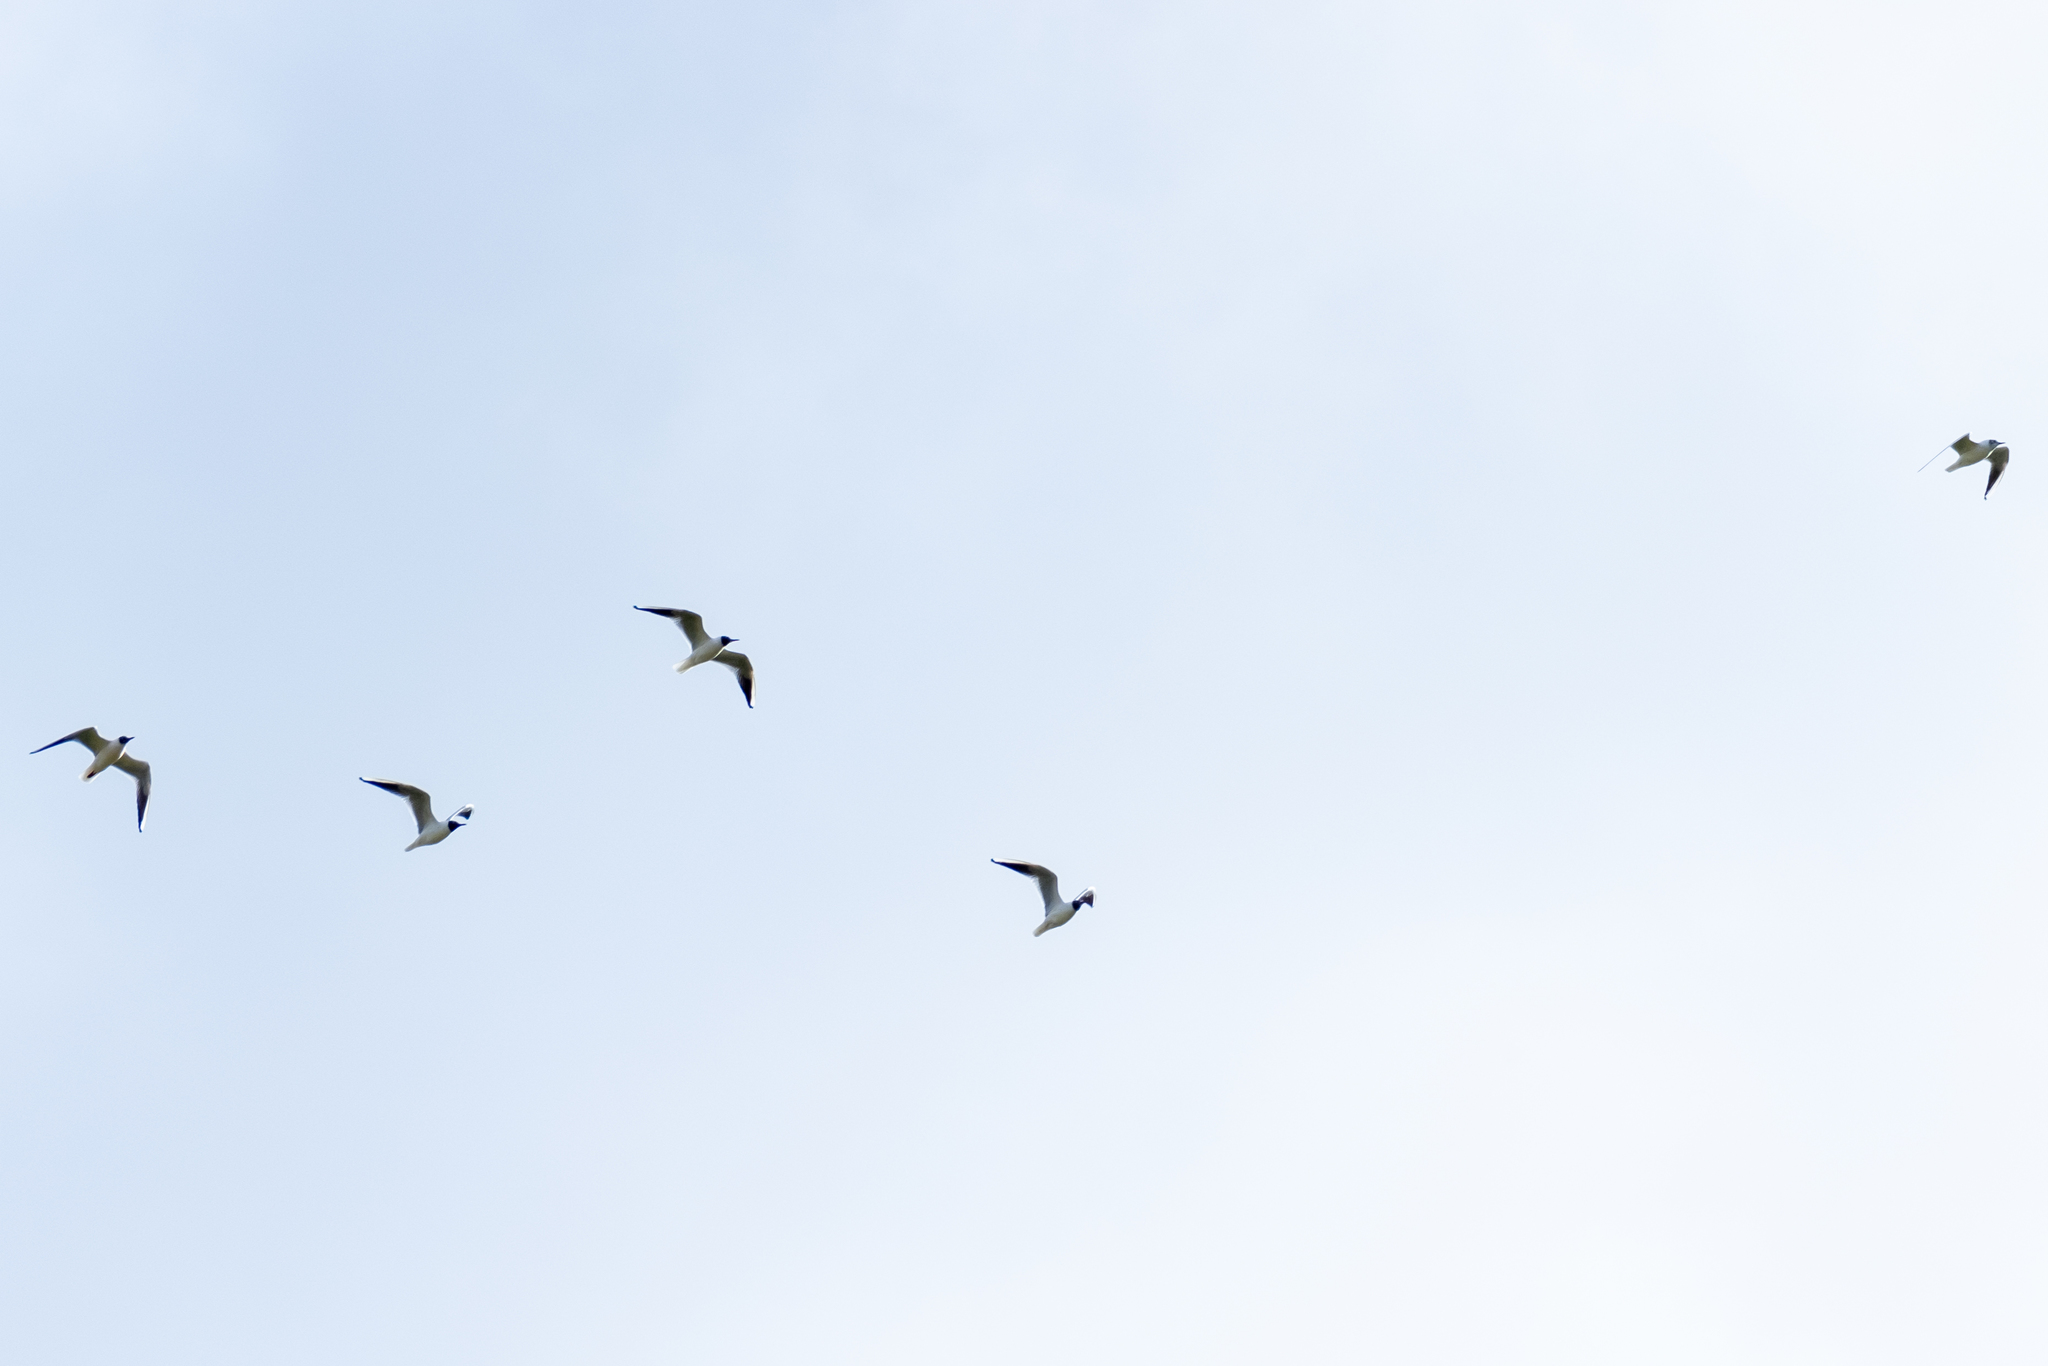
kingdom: Animalia
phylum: Chordata
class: Aves
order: Charadriiformes
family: Laridae
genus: Chroicocephalus
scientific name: Chroicocephalus ridibundus
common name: Black-headed gull
